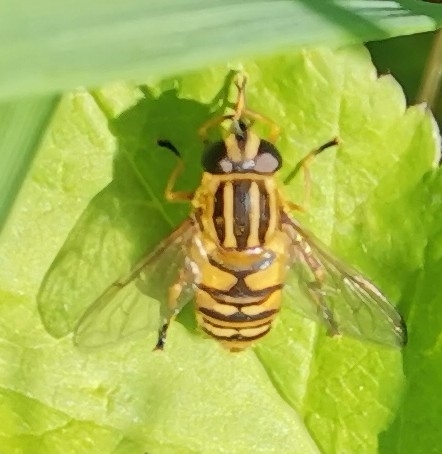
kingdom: Animalia
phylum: Arthropoda
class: Insecta
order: Diptera
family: Syrphidae
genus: Helophilus
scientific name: Helophilus pendulus
